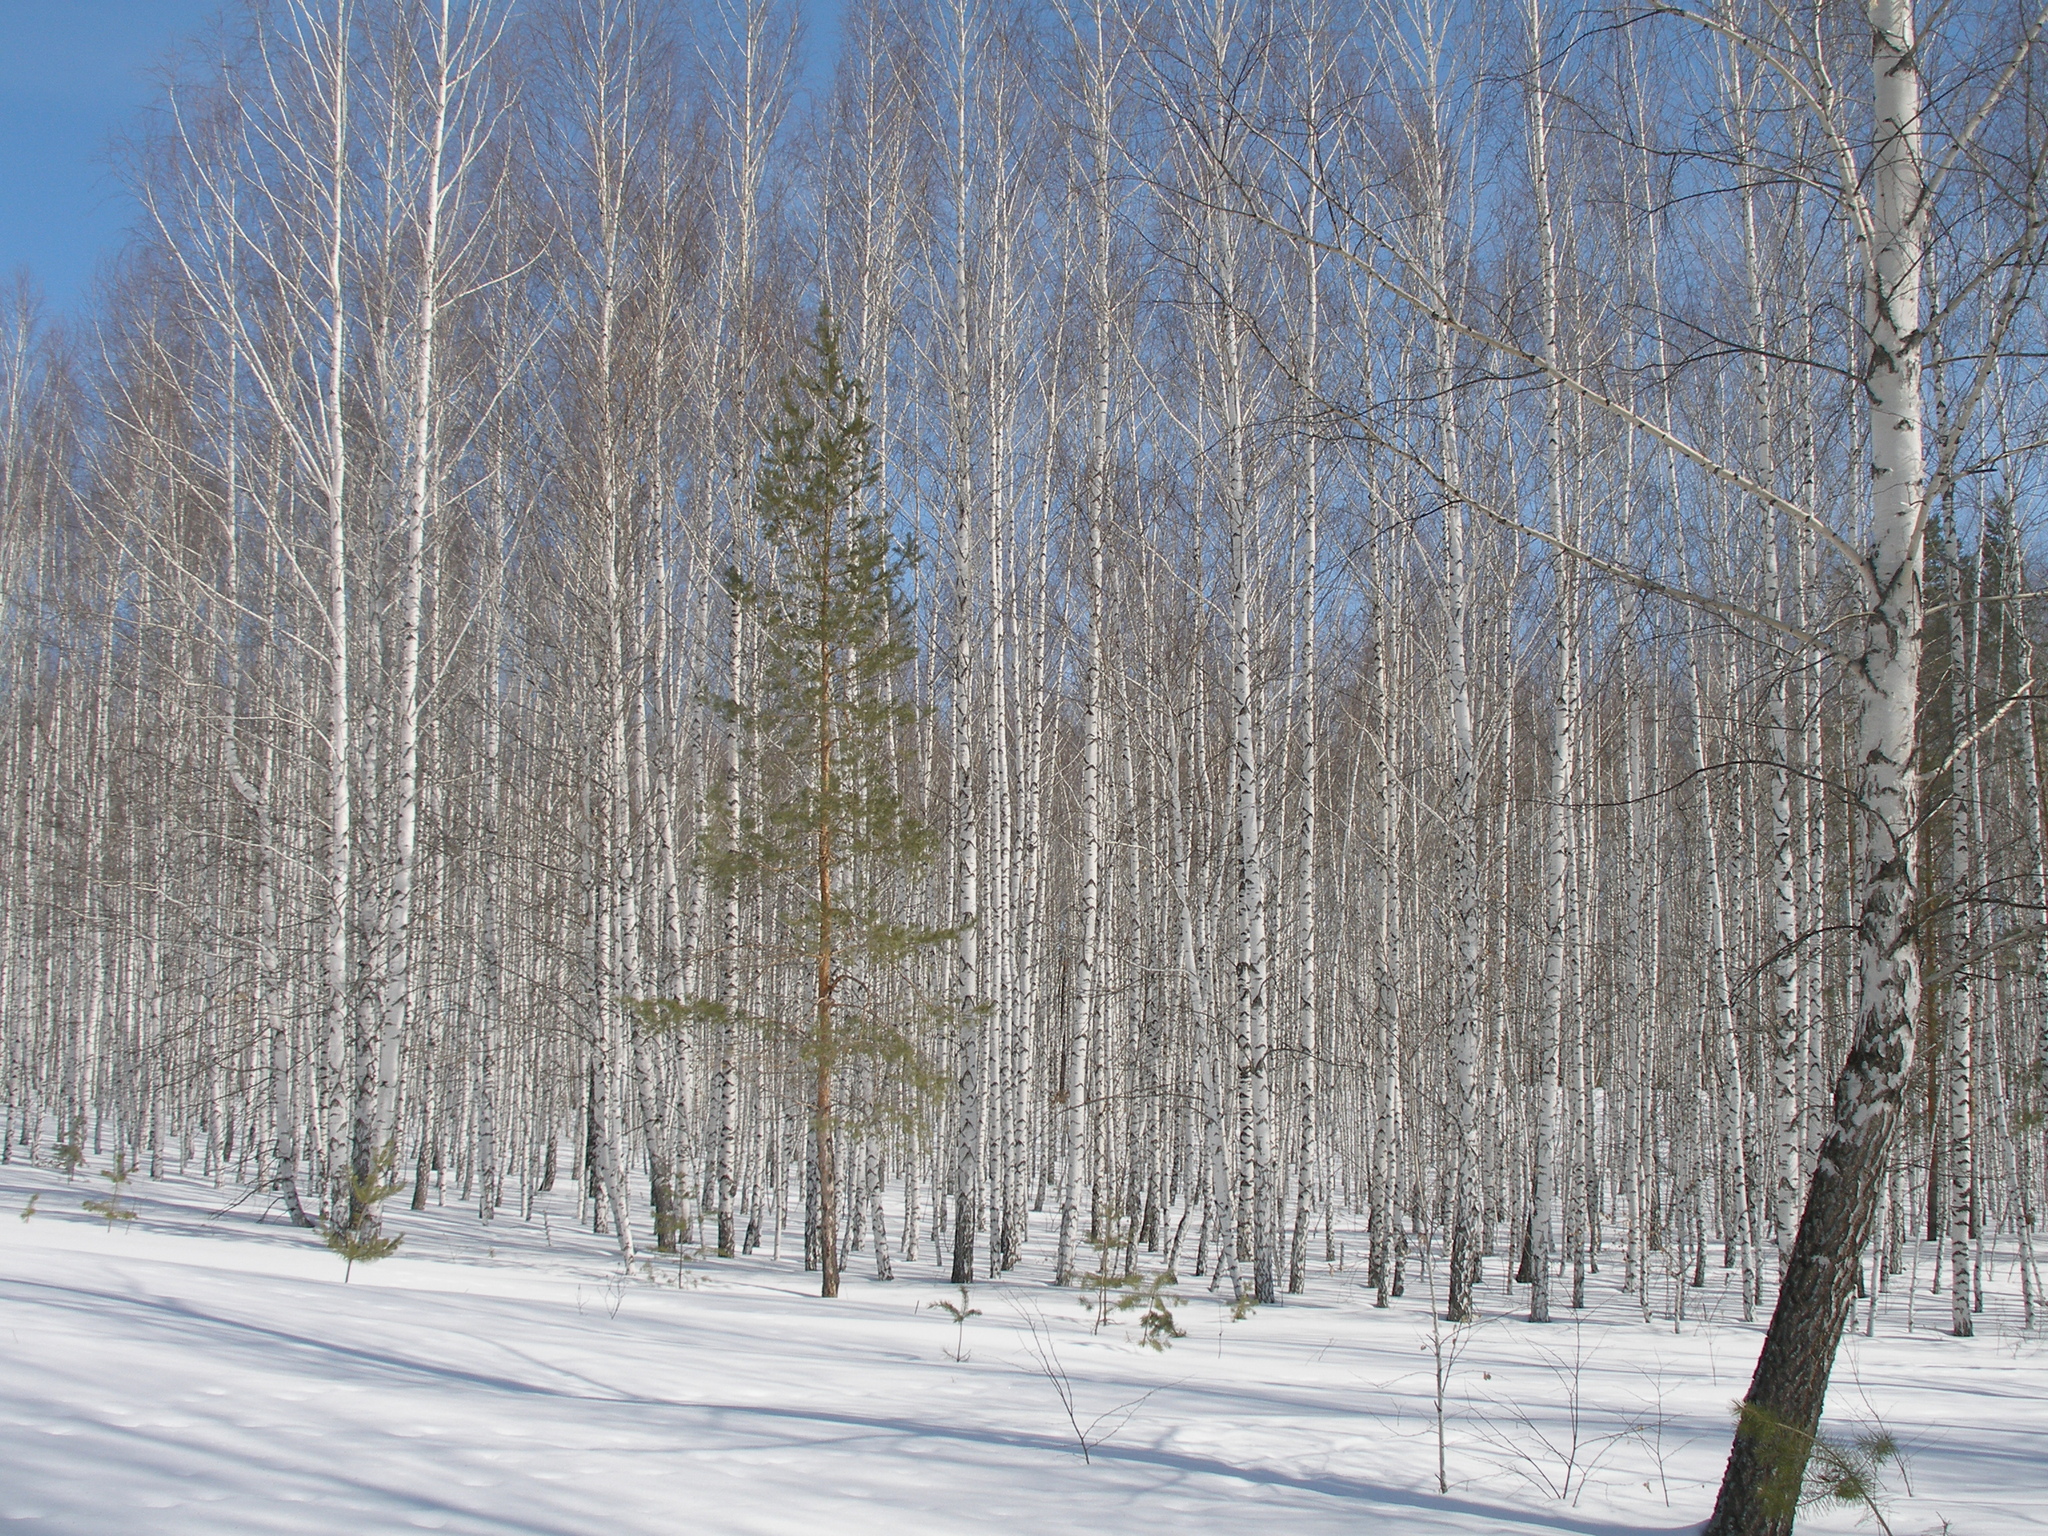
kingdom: Plantae
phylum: Tracheophyta
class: Pinopsida
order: Pinales
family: Pinaceae
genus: Pinus
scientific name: Pinus sylvestris
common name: Scots pine
